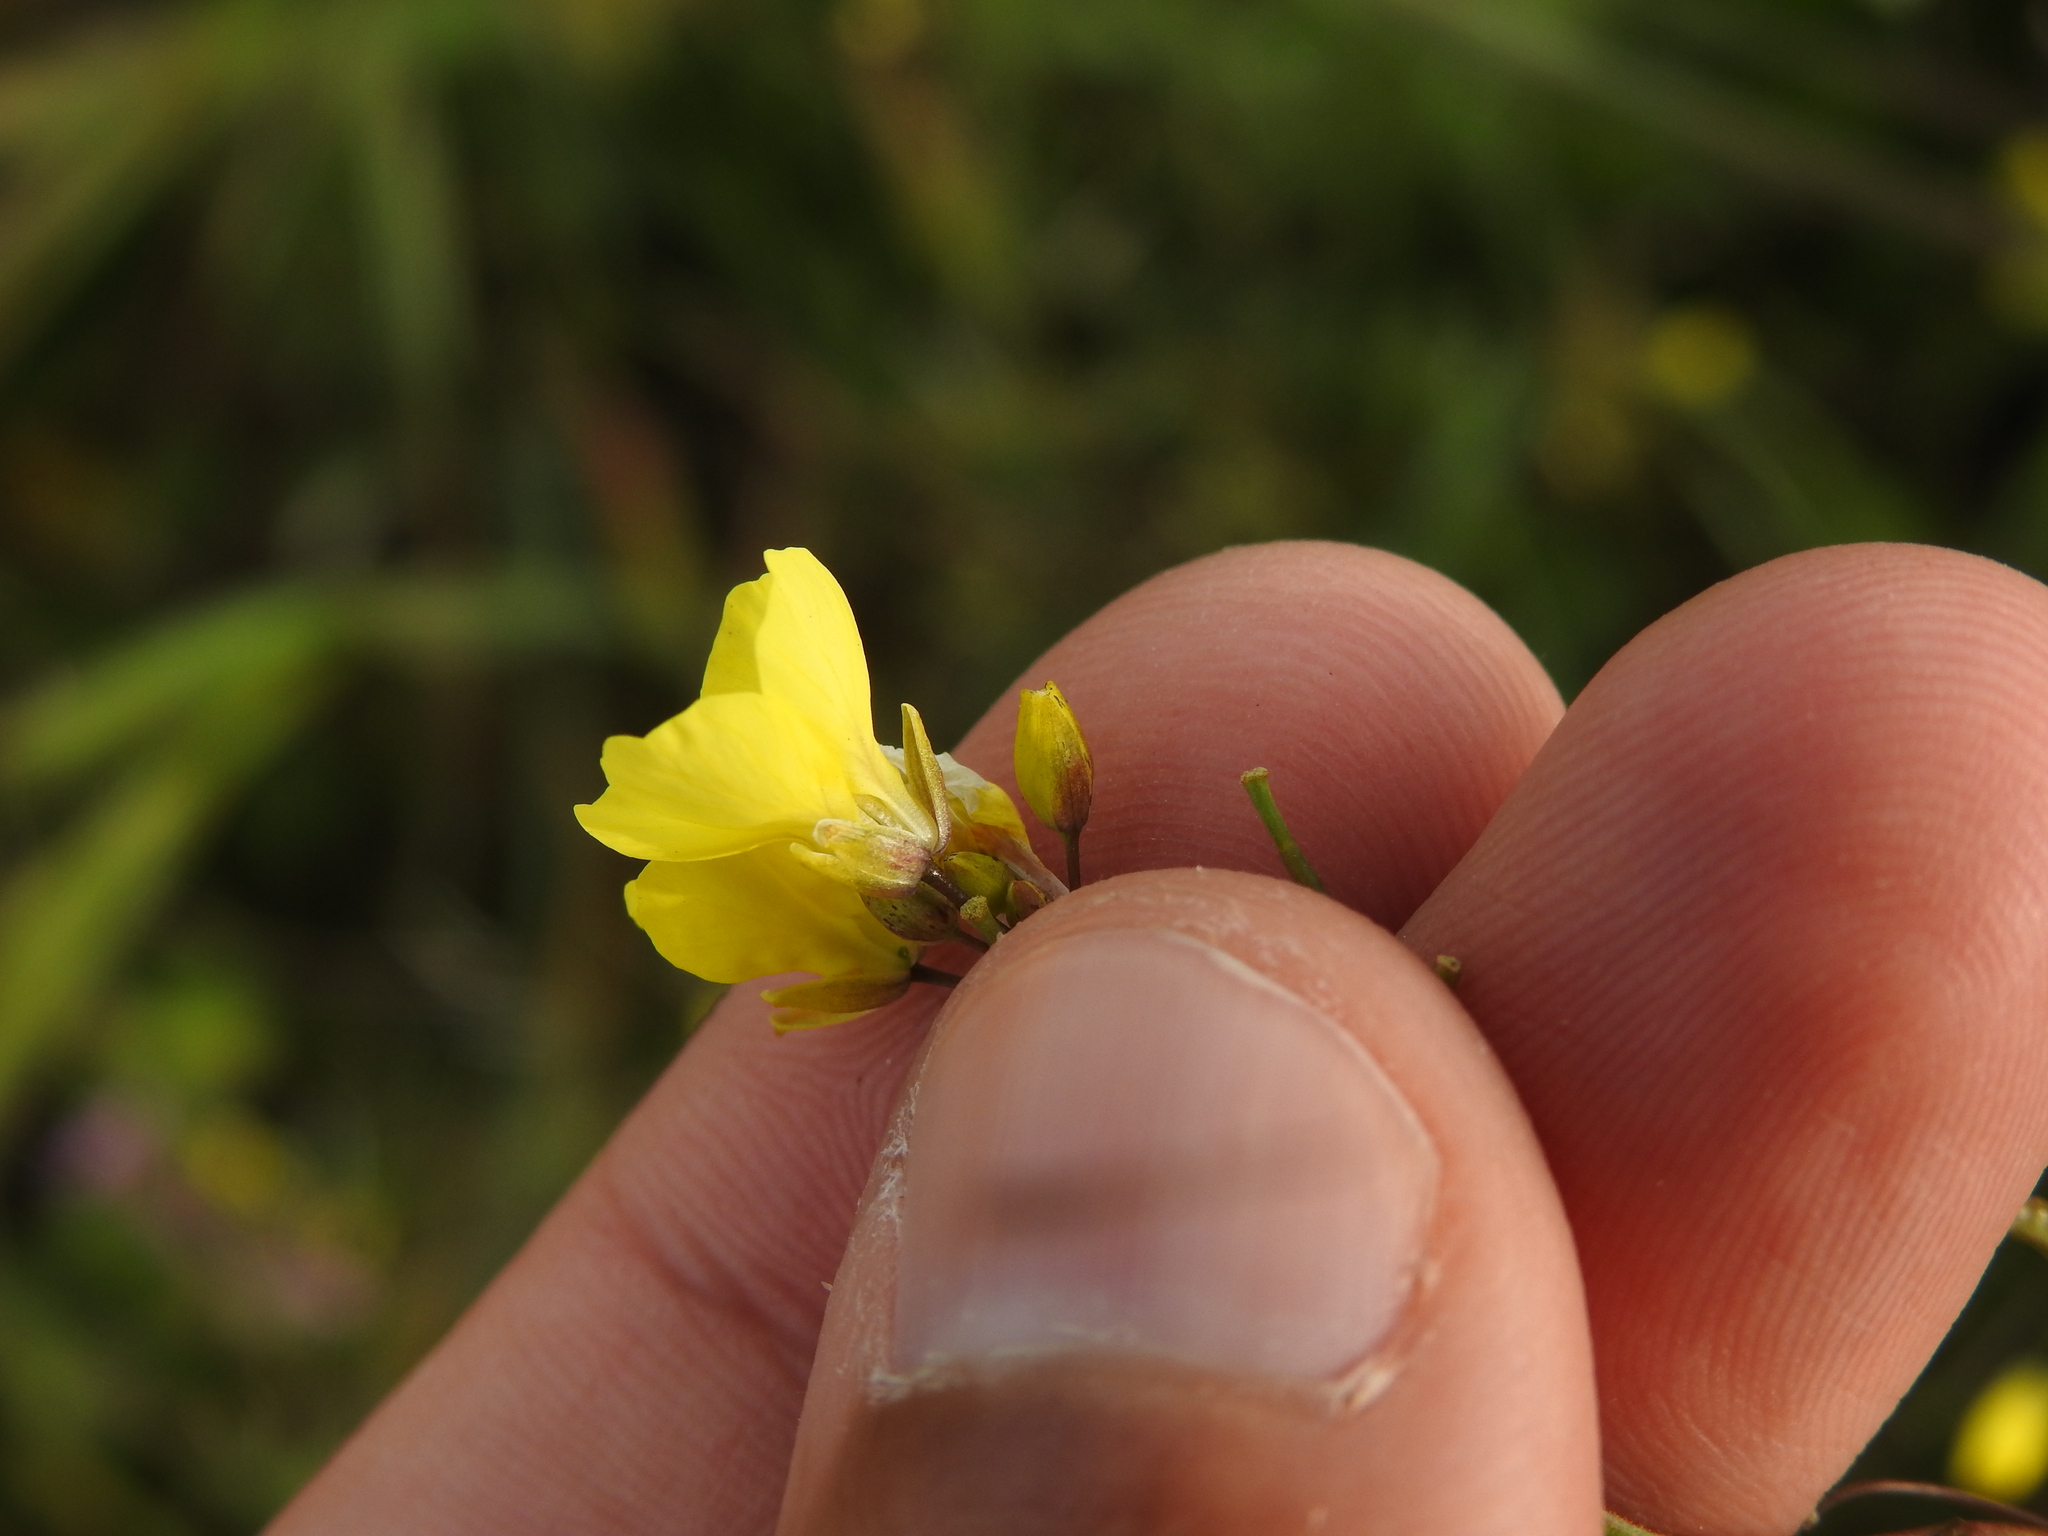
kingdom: Plantae
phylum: Tracheophyta
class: Magnoliopsida
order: Brassicales
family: Brassicaceae
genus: Diplotaxis
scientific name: Diplotaxis catholica
